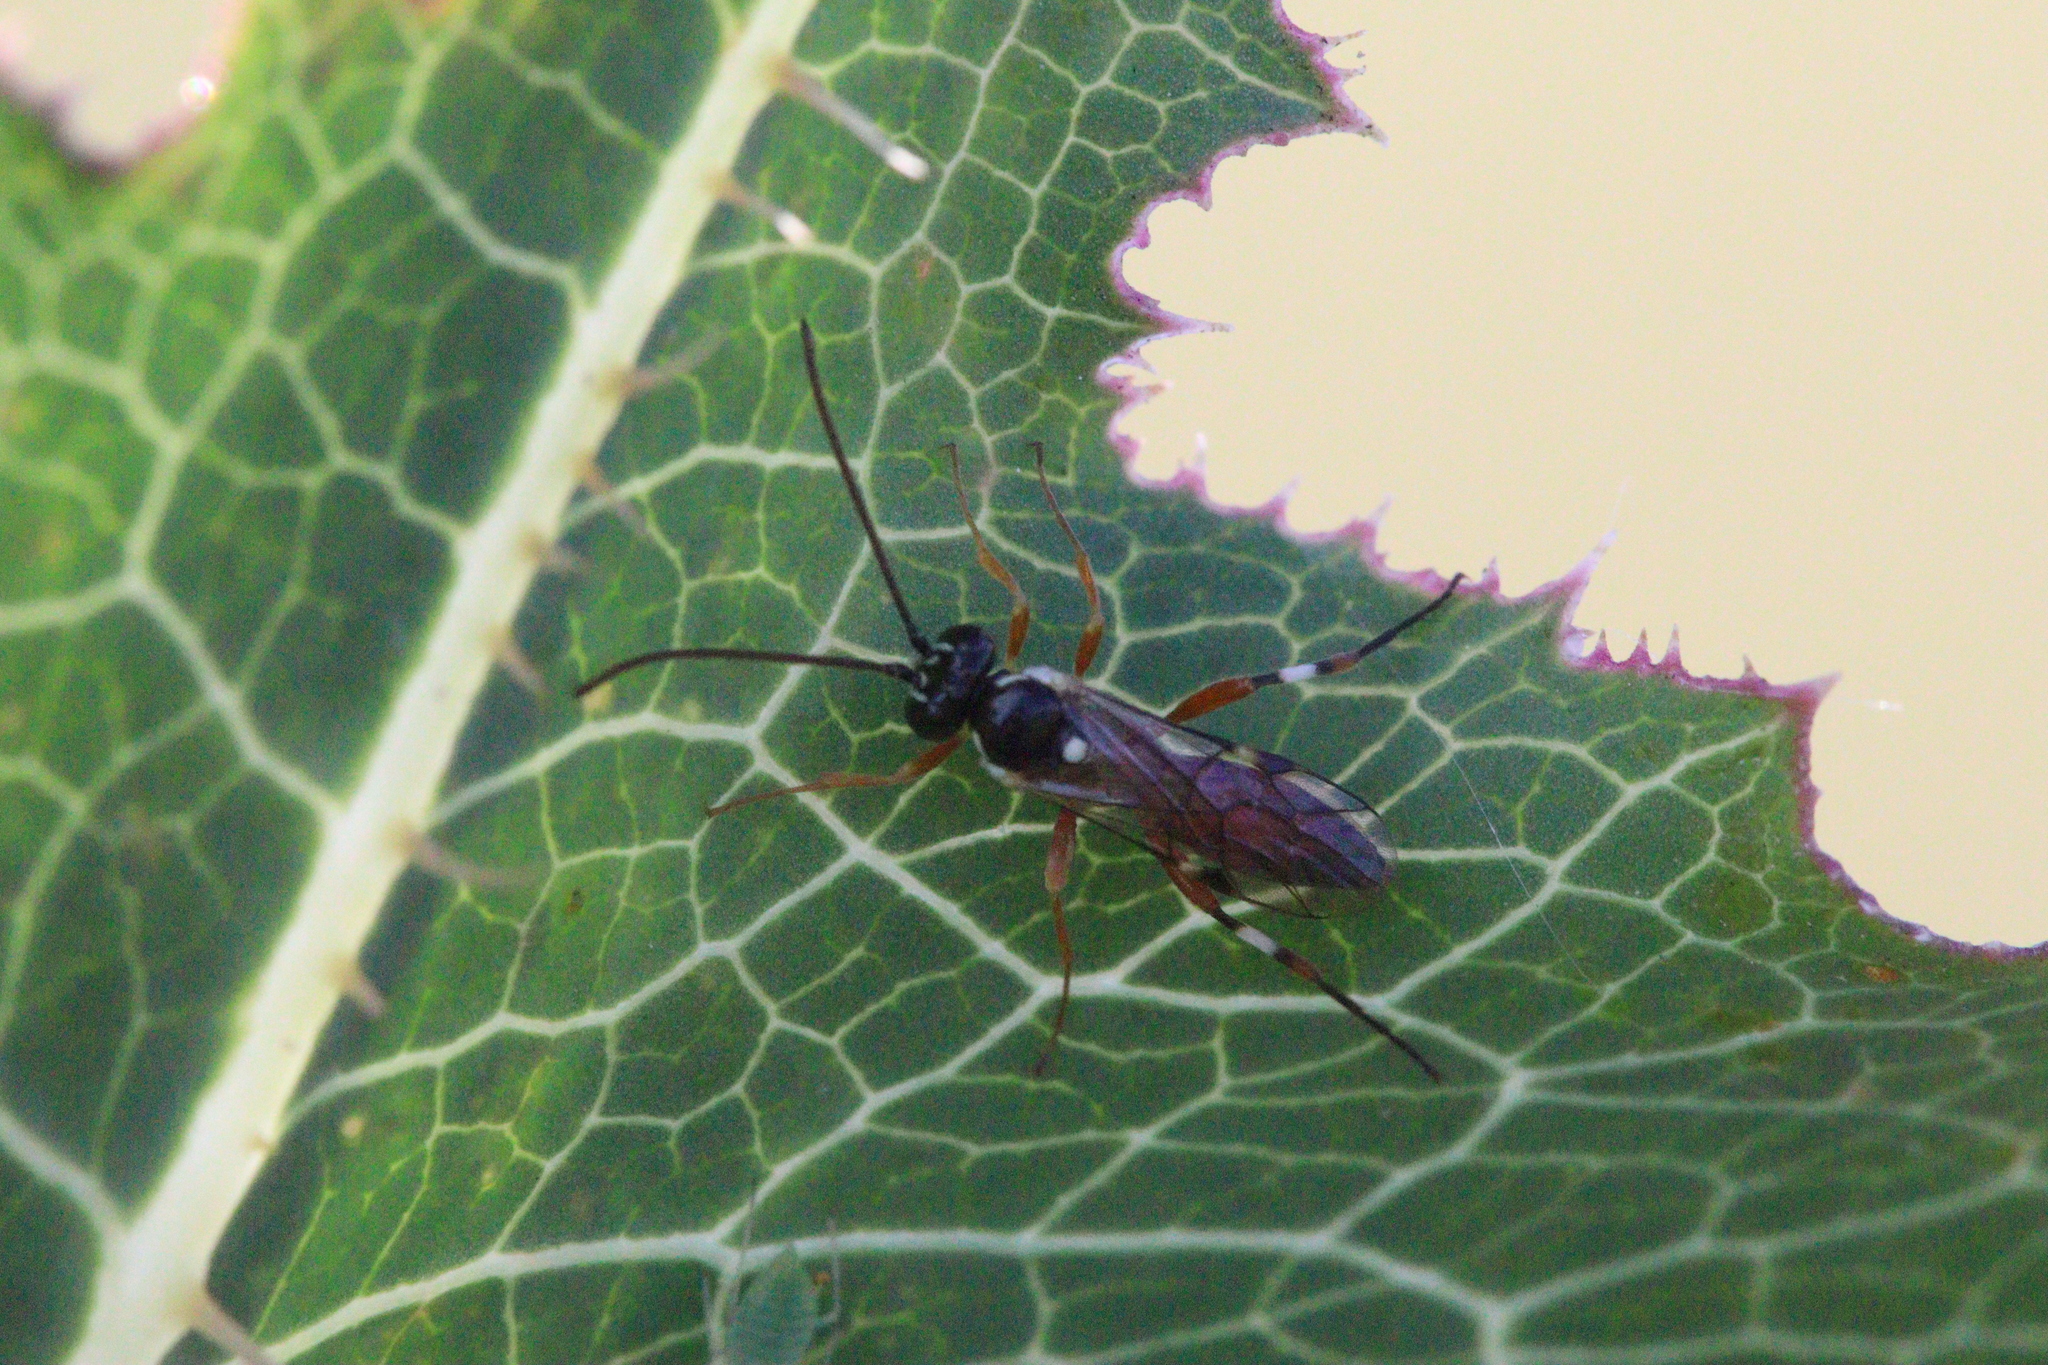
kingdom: Animalia
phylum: Arthropoda
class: Insecta
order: Hymenoptera
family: Ichneumonidae
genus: Diplazon
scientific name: Diplazon laetatorius
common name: Parasitoid wasp
